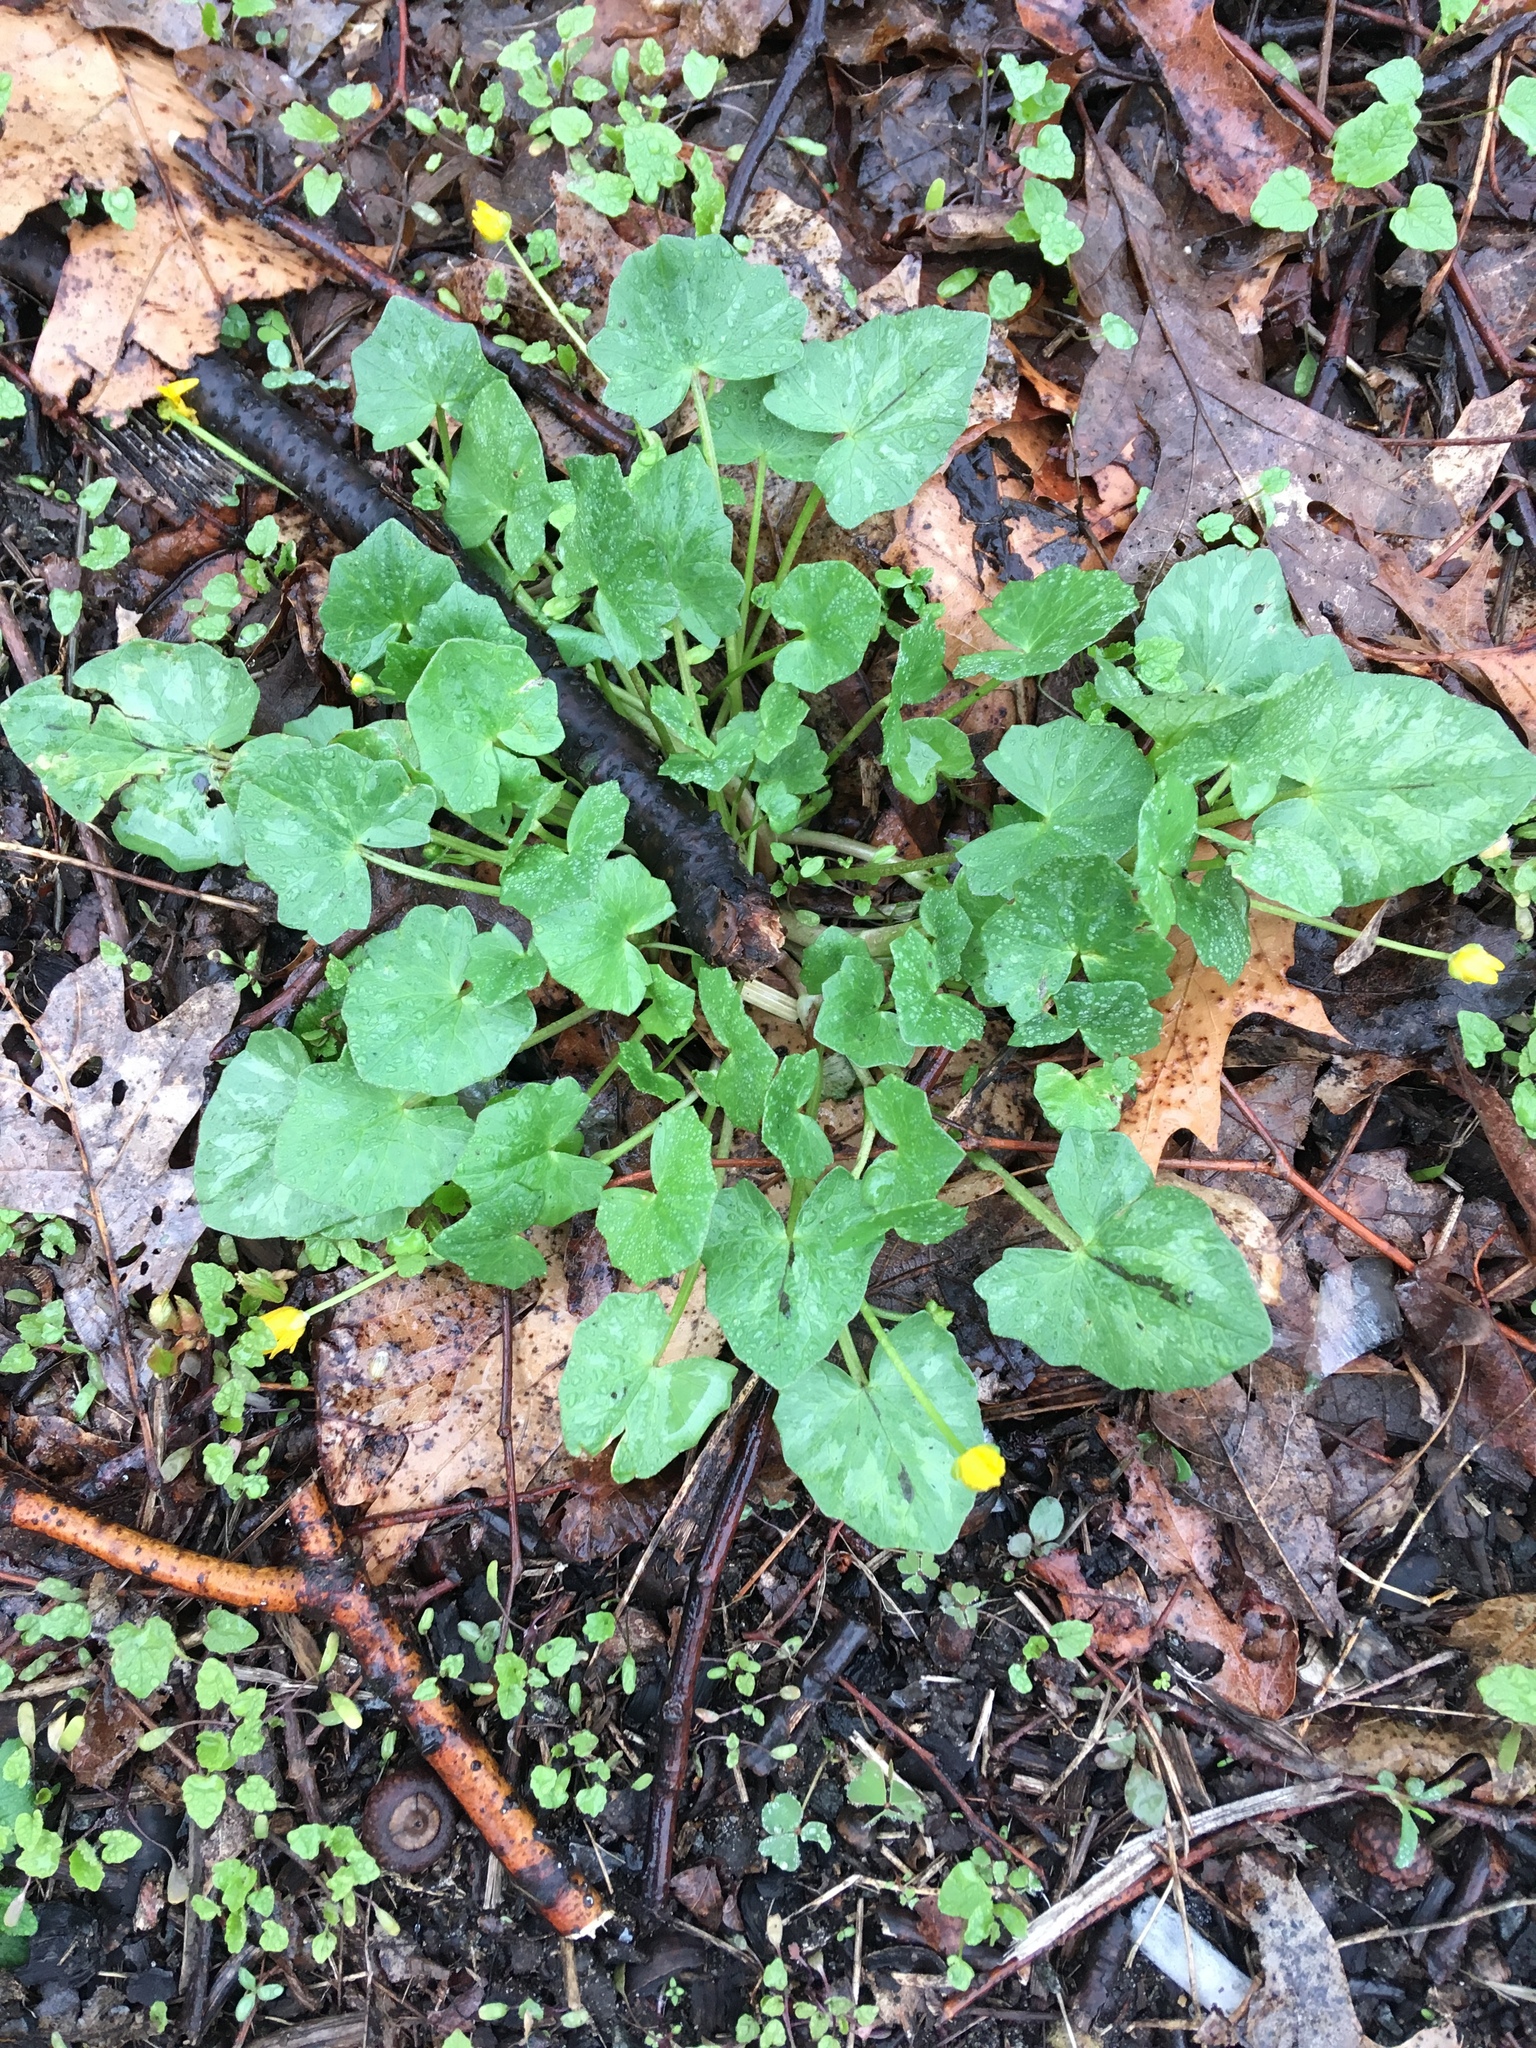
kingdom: Plantae
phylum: Tracheophyta
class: Magnoliopsida
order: Ranunculales
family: Ranunculaceae
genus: Ficaria
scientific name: Ficaria verna
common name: Lesser celandine
